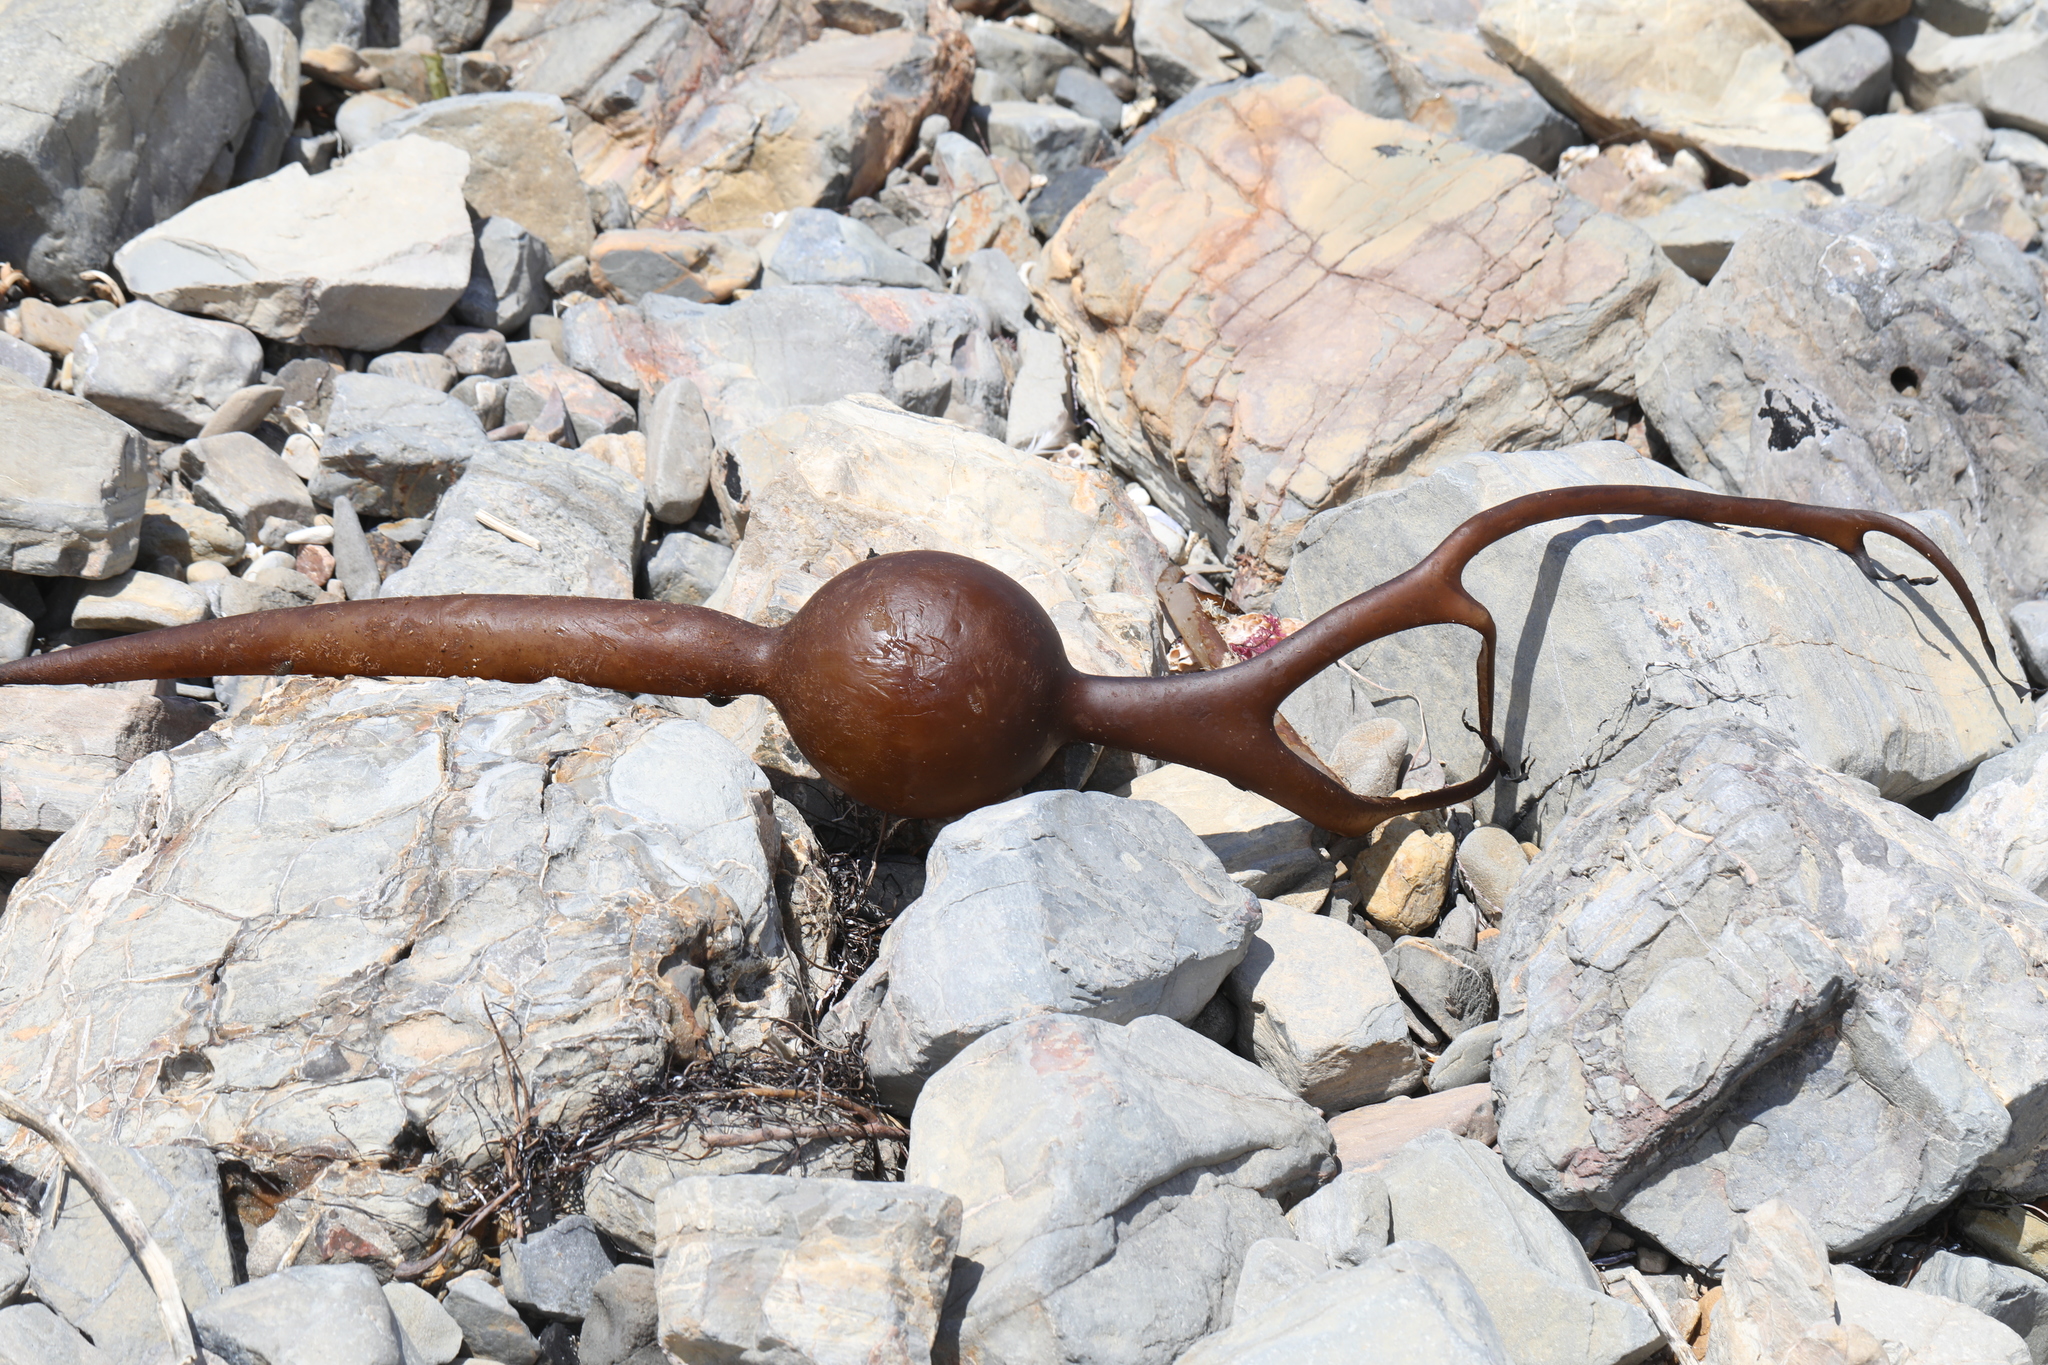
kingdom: Chromista
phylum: Ochrophyta
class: Phaeophyceae
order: Laminariales
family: Laminariaceae
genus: Pelagophycus
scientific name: Pelagophycus porra
